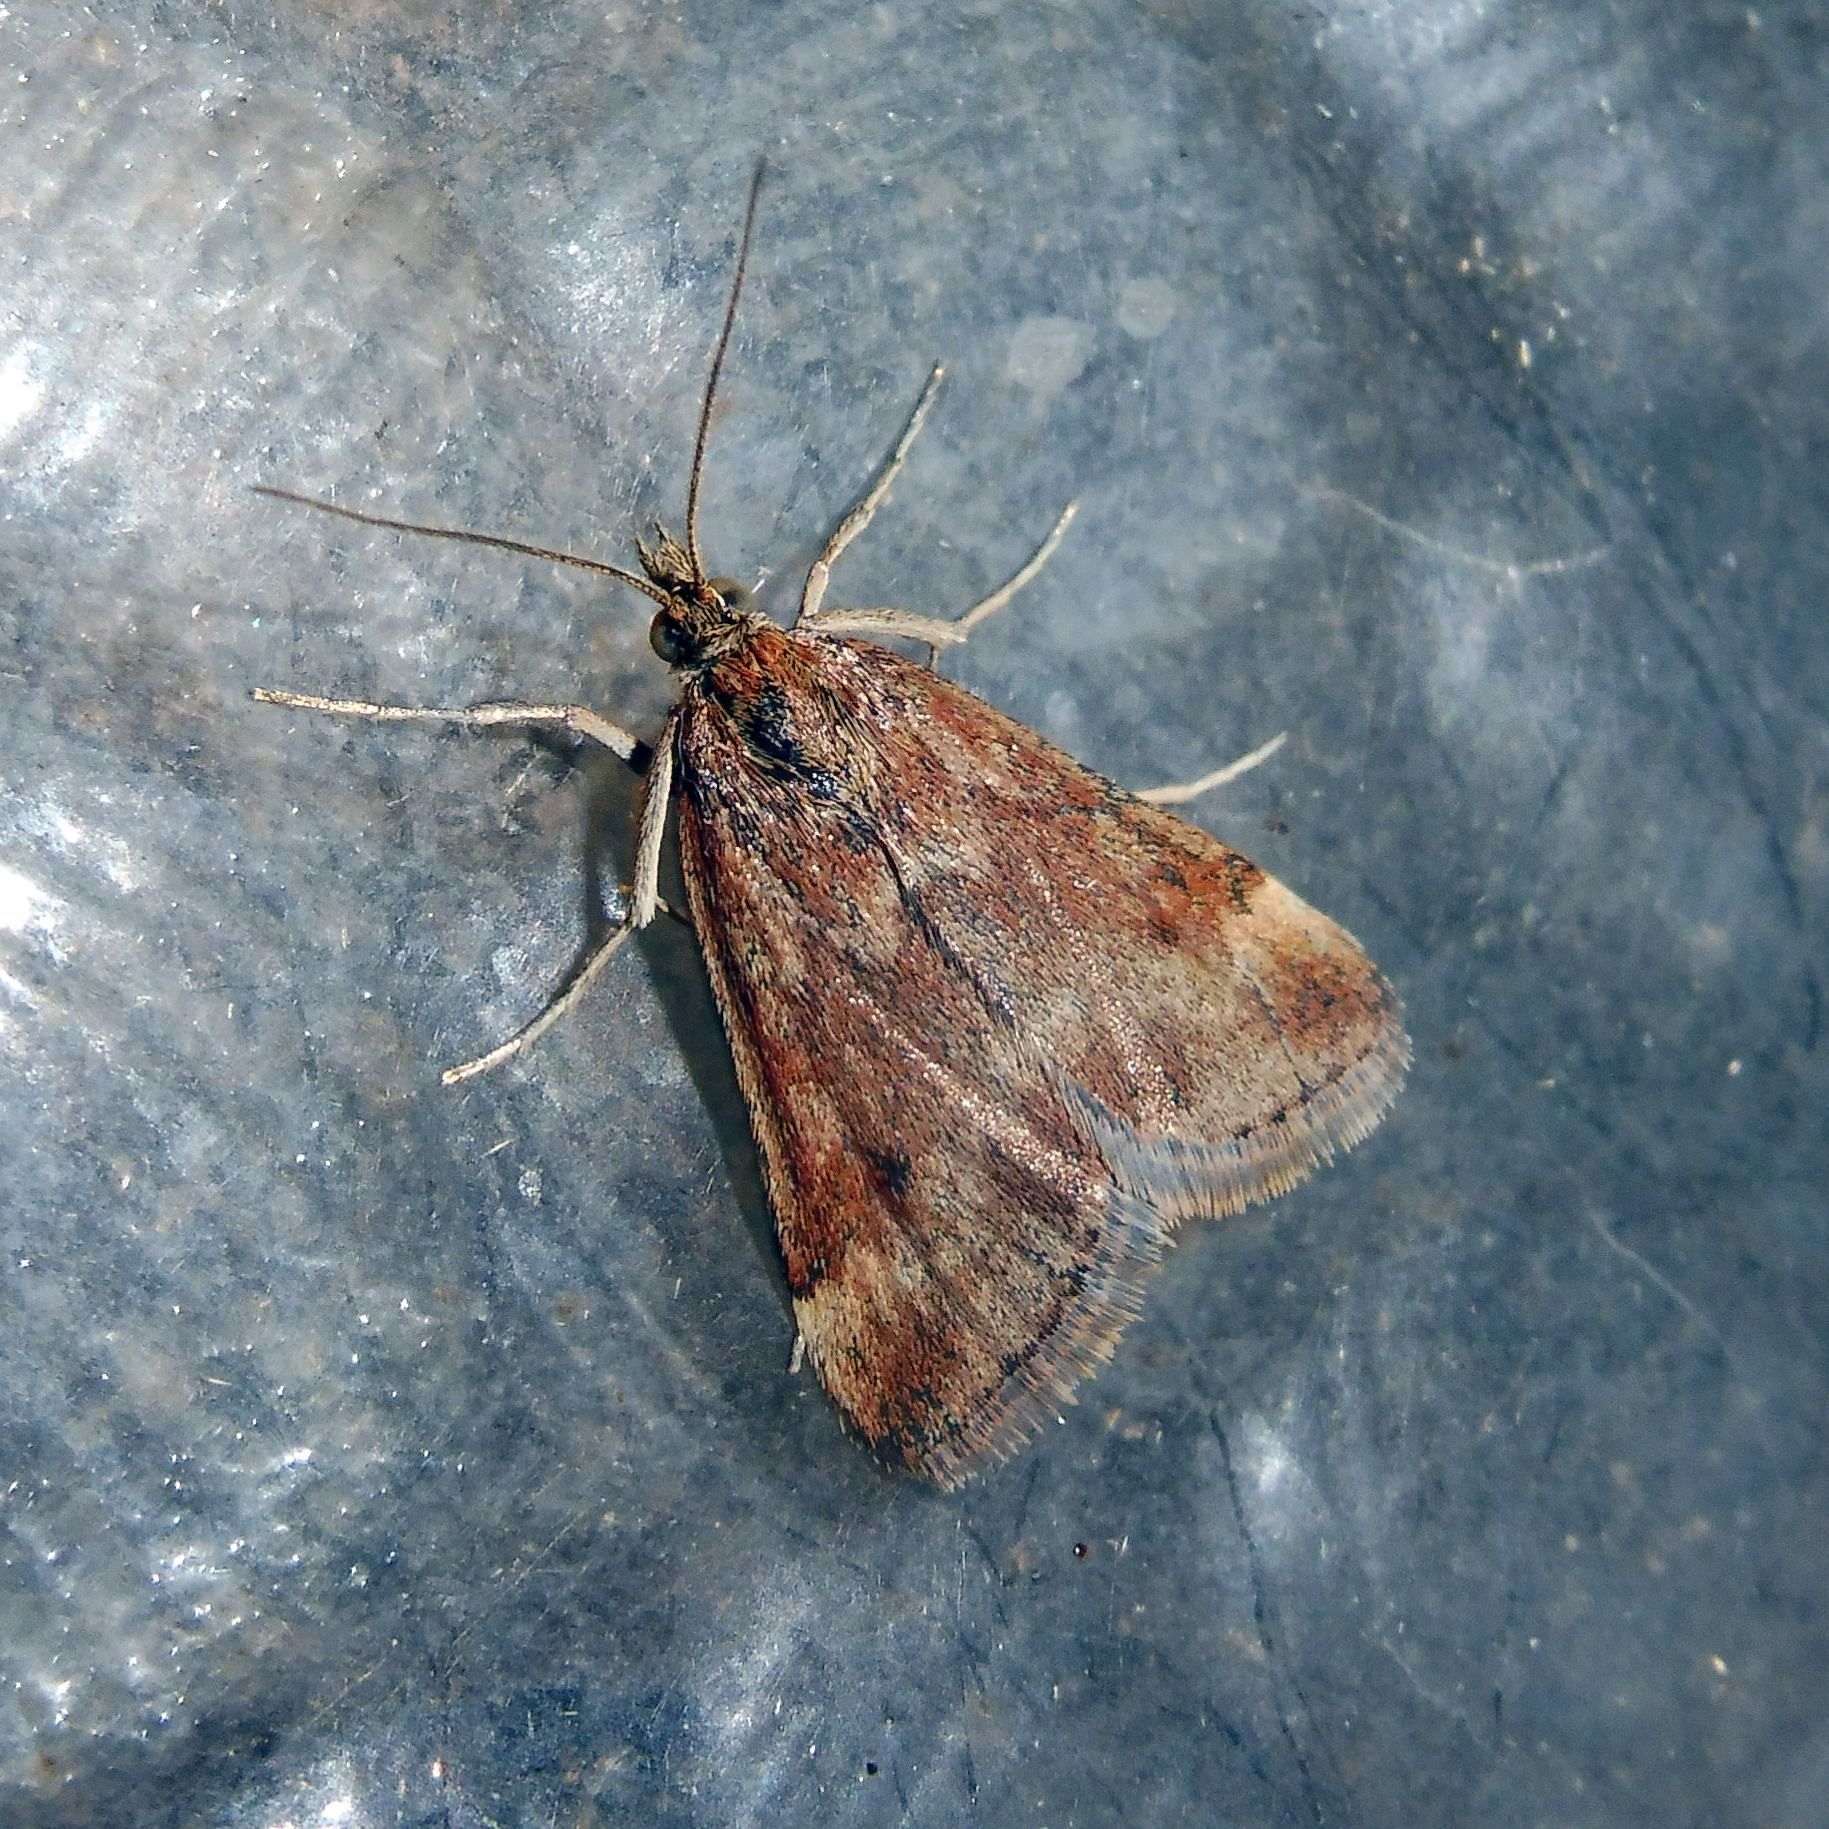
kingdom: Animalia
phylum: Arthropoda
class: Insecta
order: Lepidoptera
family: Crambidae
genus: Pyrausta
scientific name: Pyrausta despicata
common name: Straw-barred pearl
